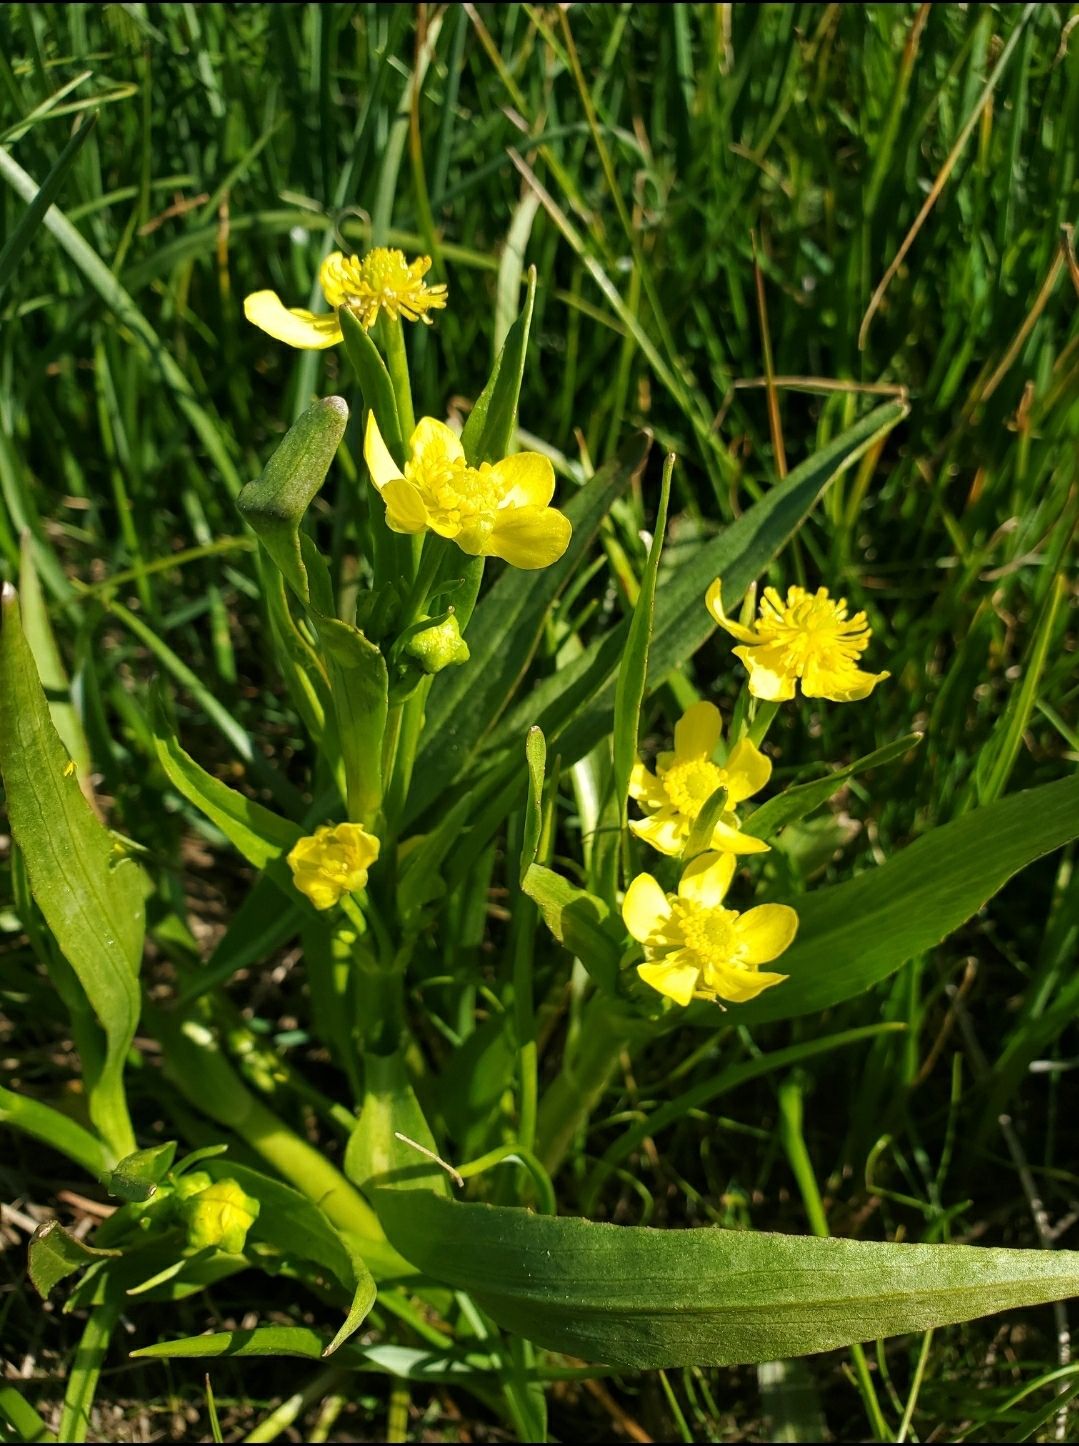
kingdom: Plantae
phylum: Tracheophyta
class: Magnoliopsida
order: Ranunculales
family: Ranunculaceae
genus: Ranunculus
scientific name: Ranunculus alismifolius
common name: Plantain-leaved buttercup
